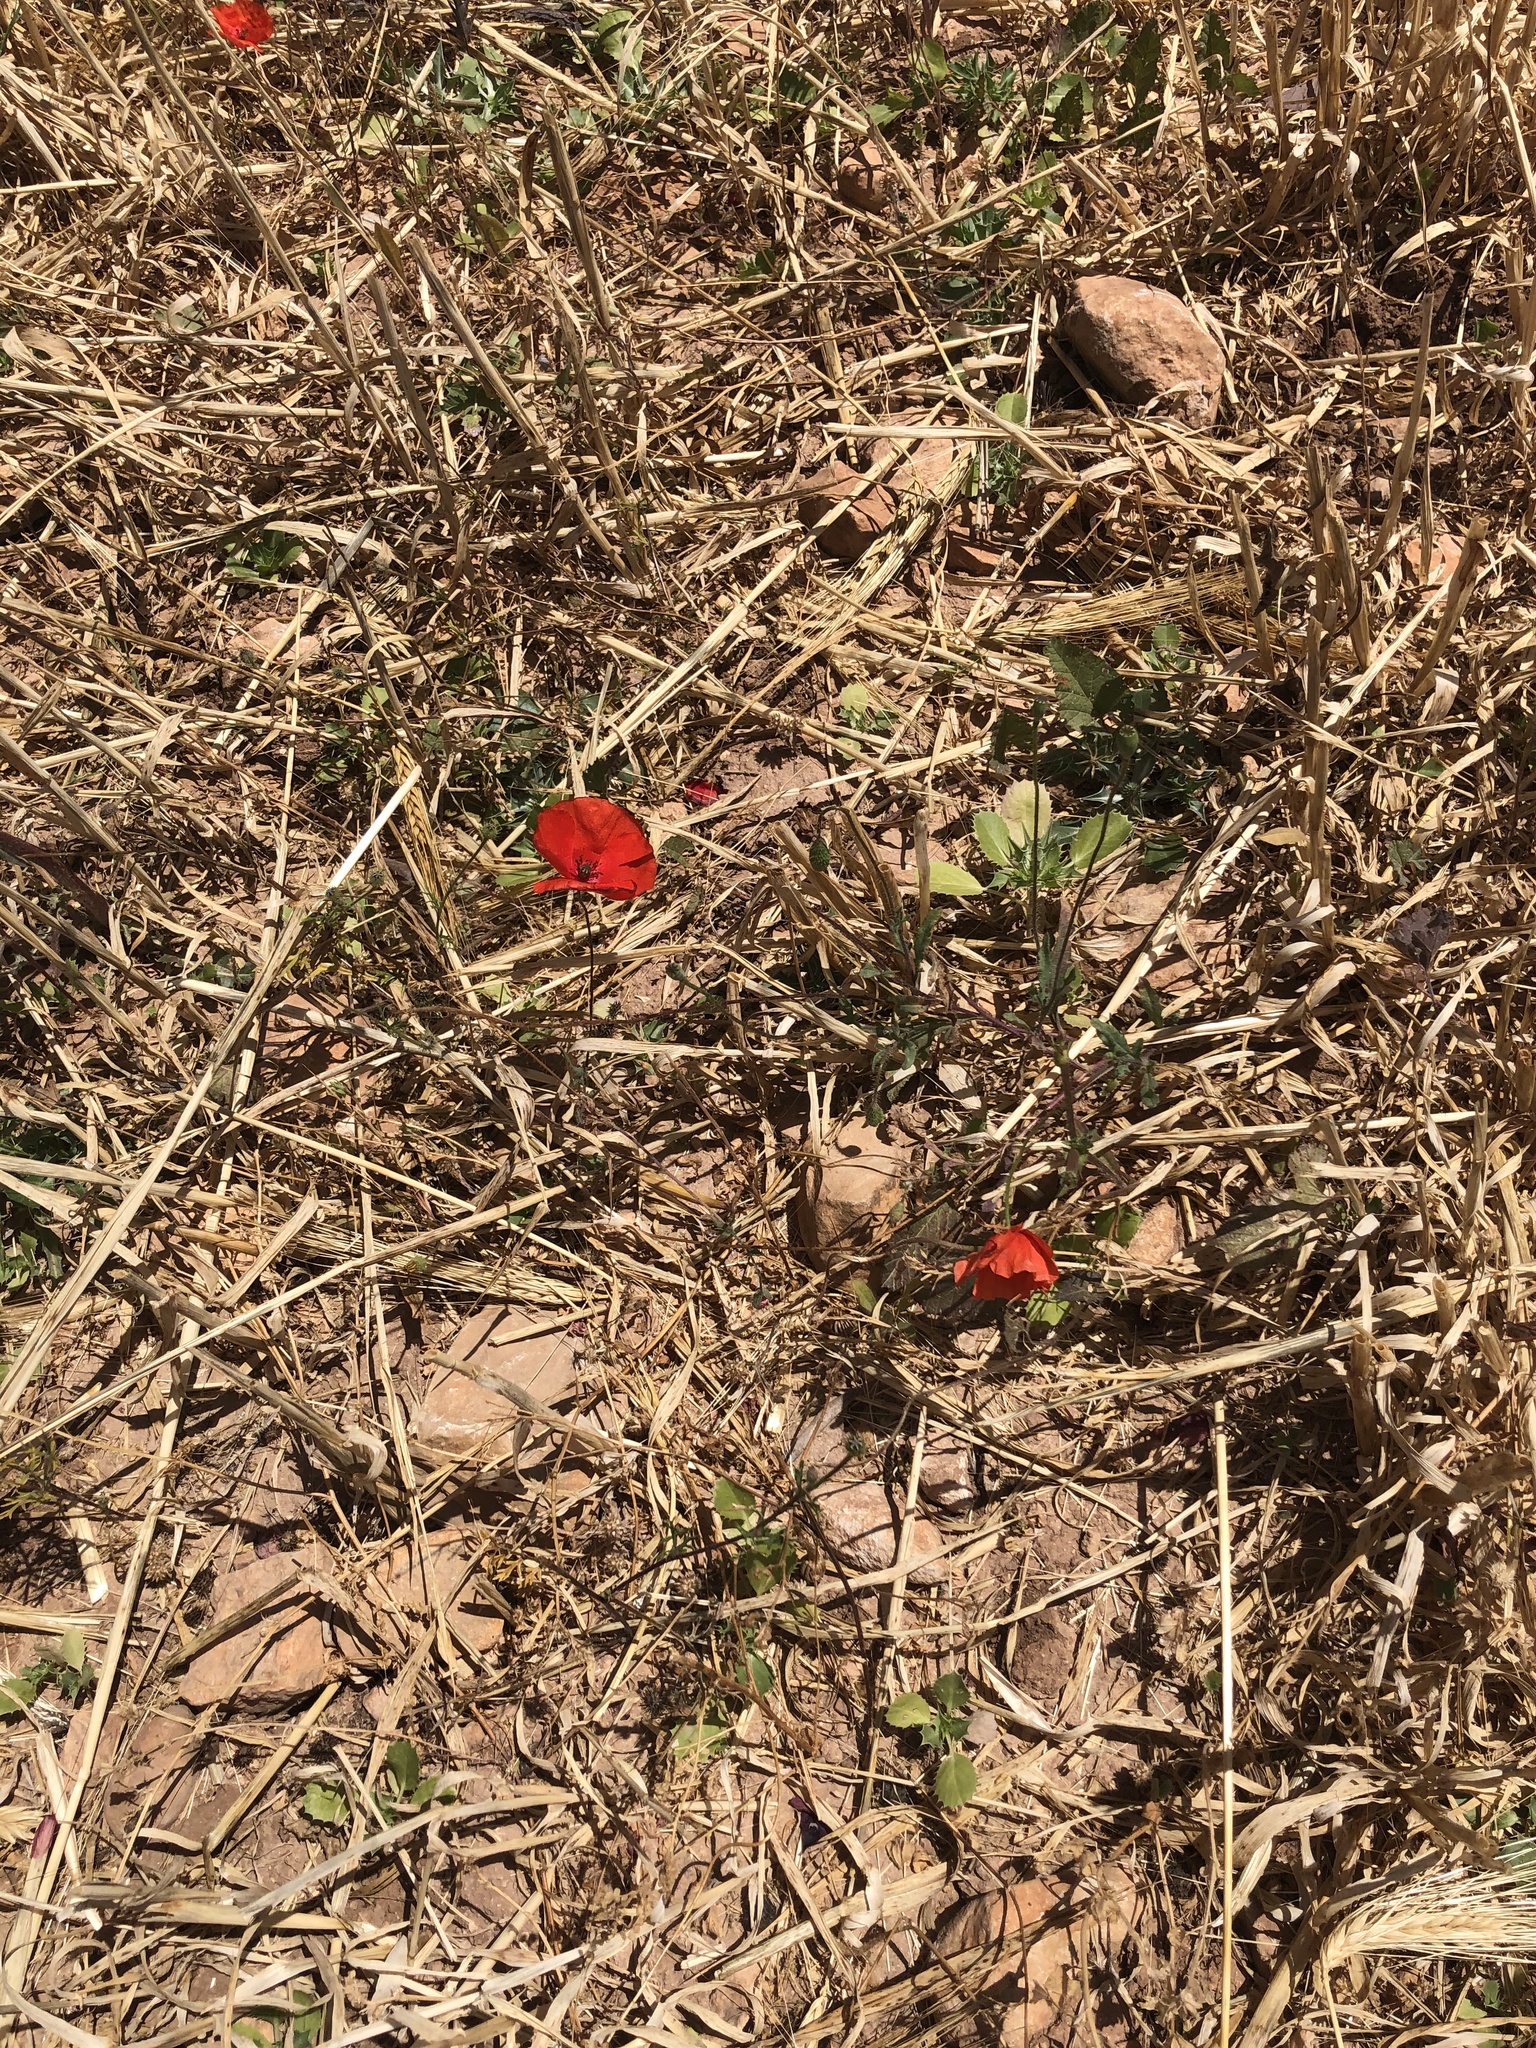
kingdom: Plantae
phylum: Tracheophyta
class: Magnoliopsida
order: Ranunculales
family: Papaveraceae
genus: Papaver
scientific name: Papaver rhoeas
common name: Corn poppy
